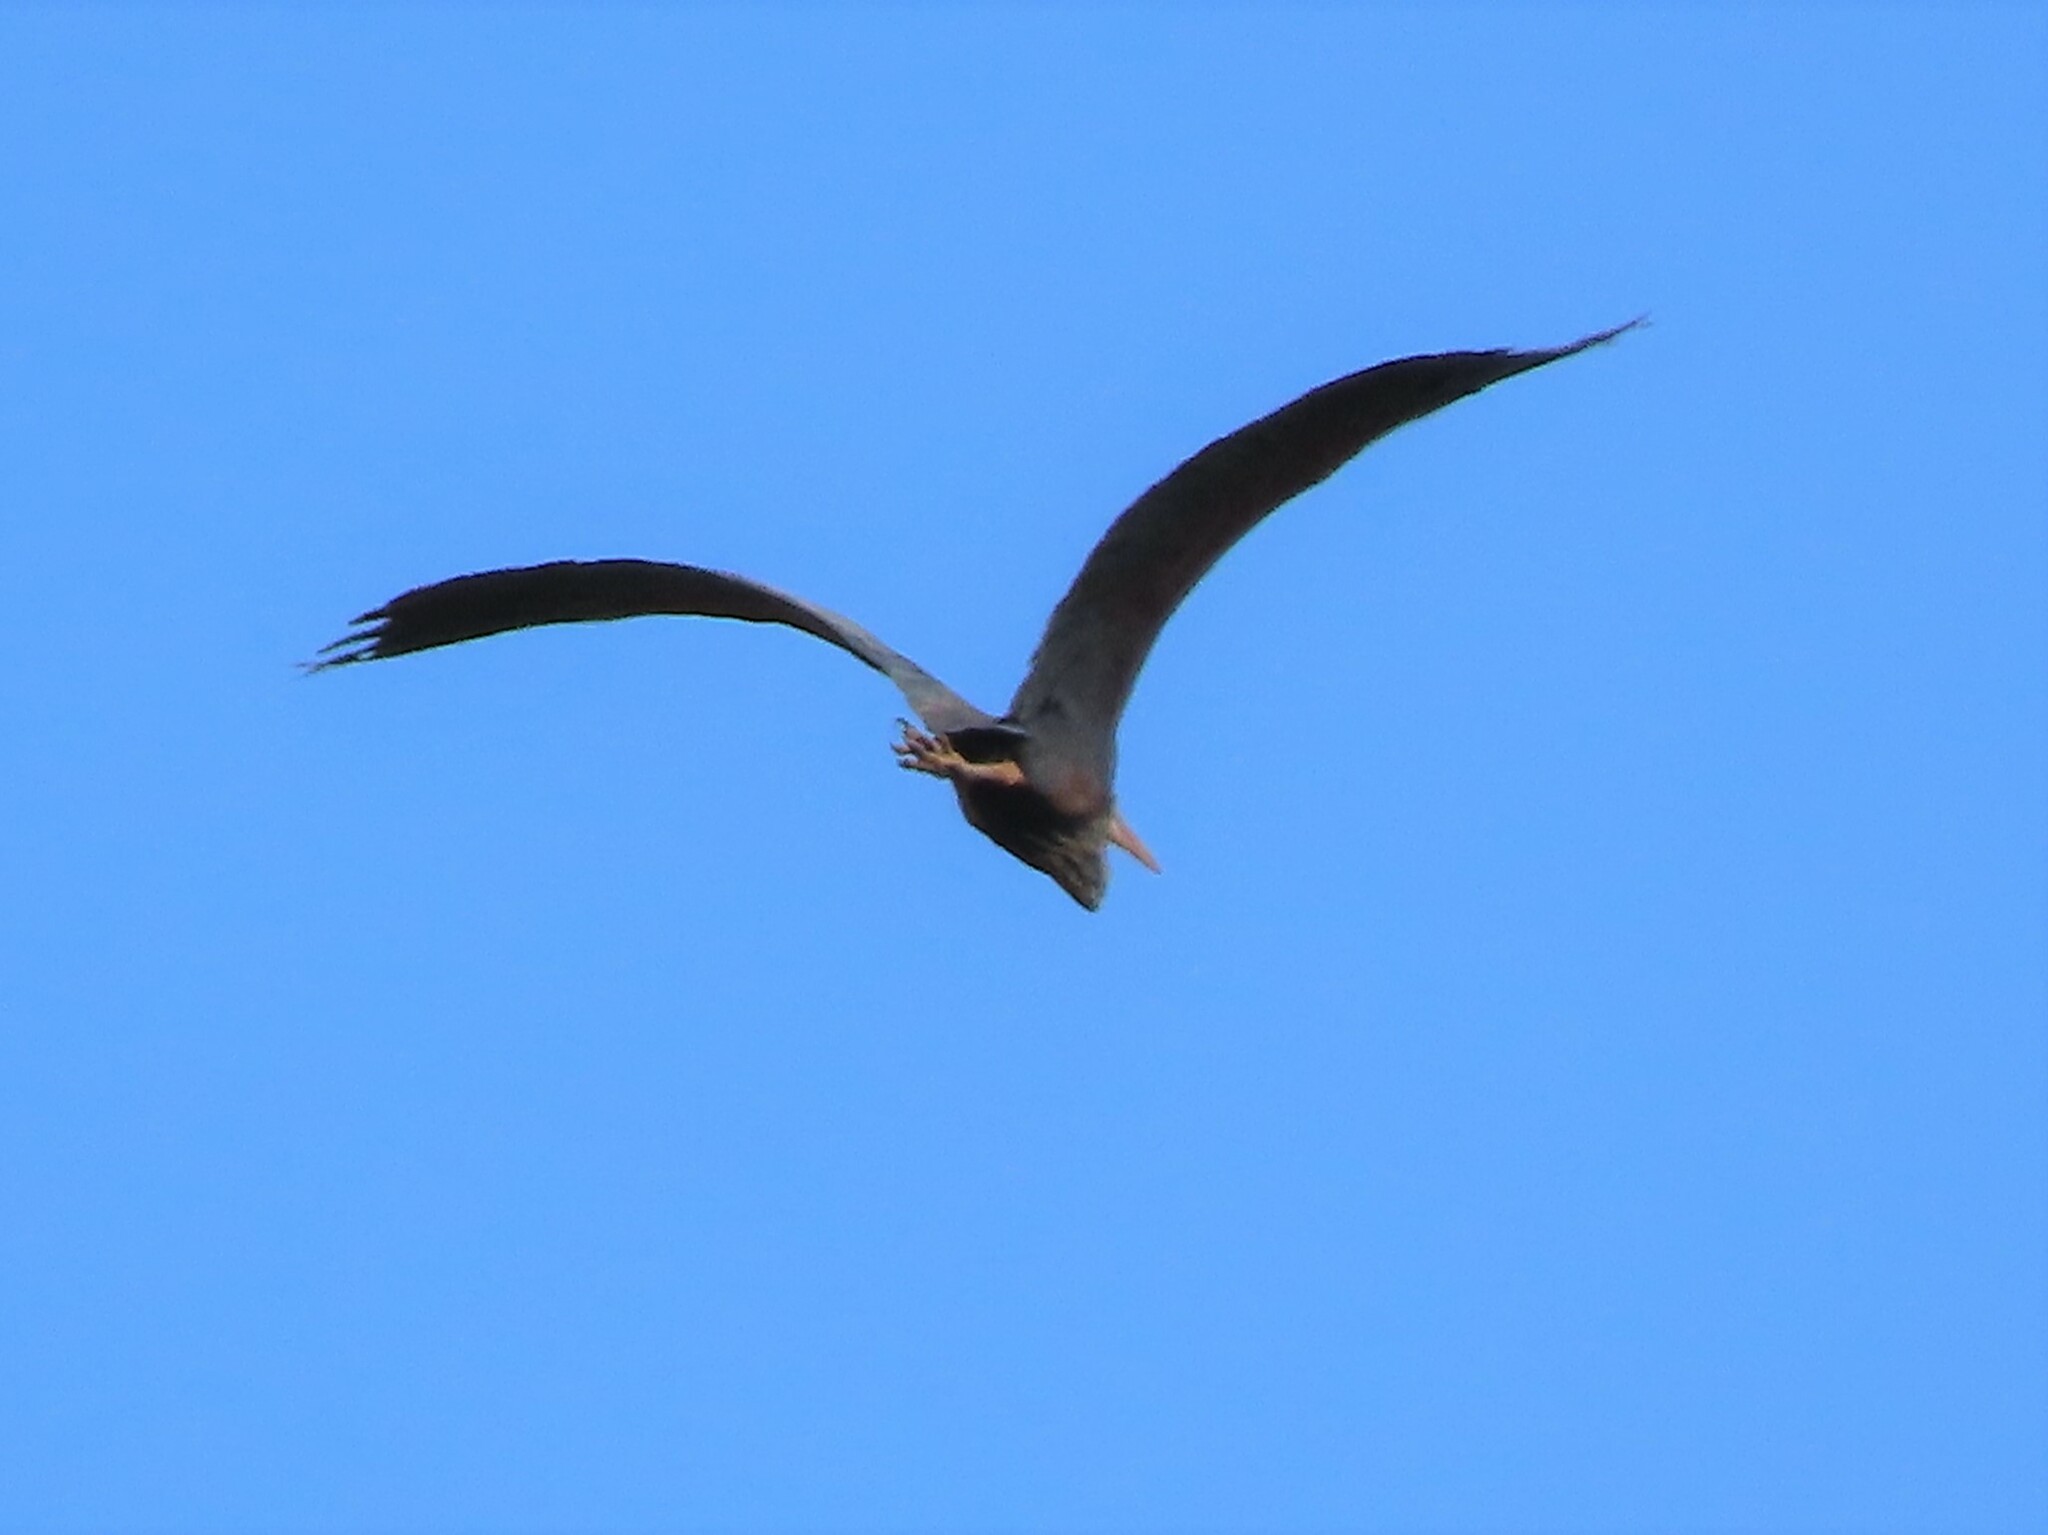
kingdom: Animalia
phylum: Chordata
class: Aves
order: Pelecaniformes
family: Ardeidae
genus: Ardea
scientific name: Ardea purpurea
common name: Purple heron
